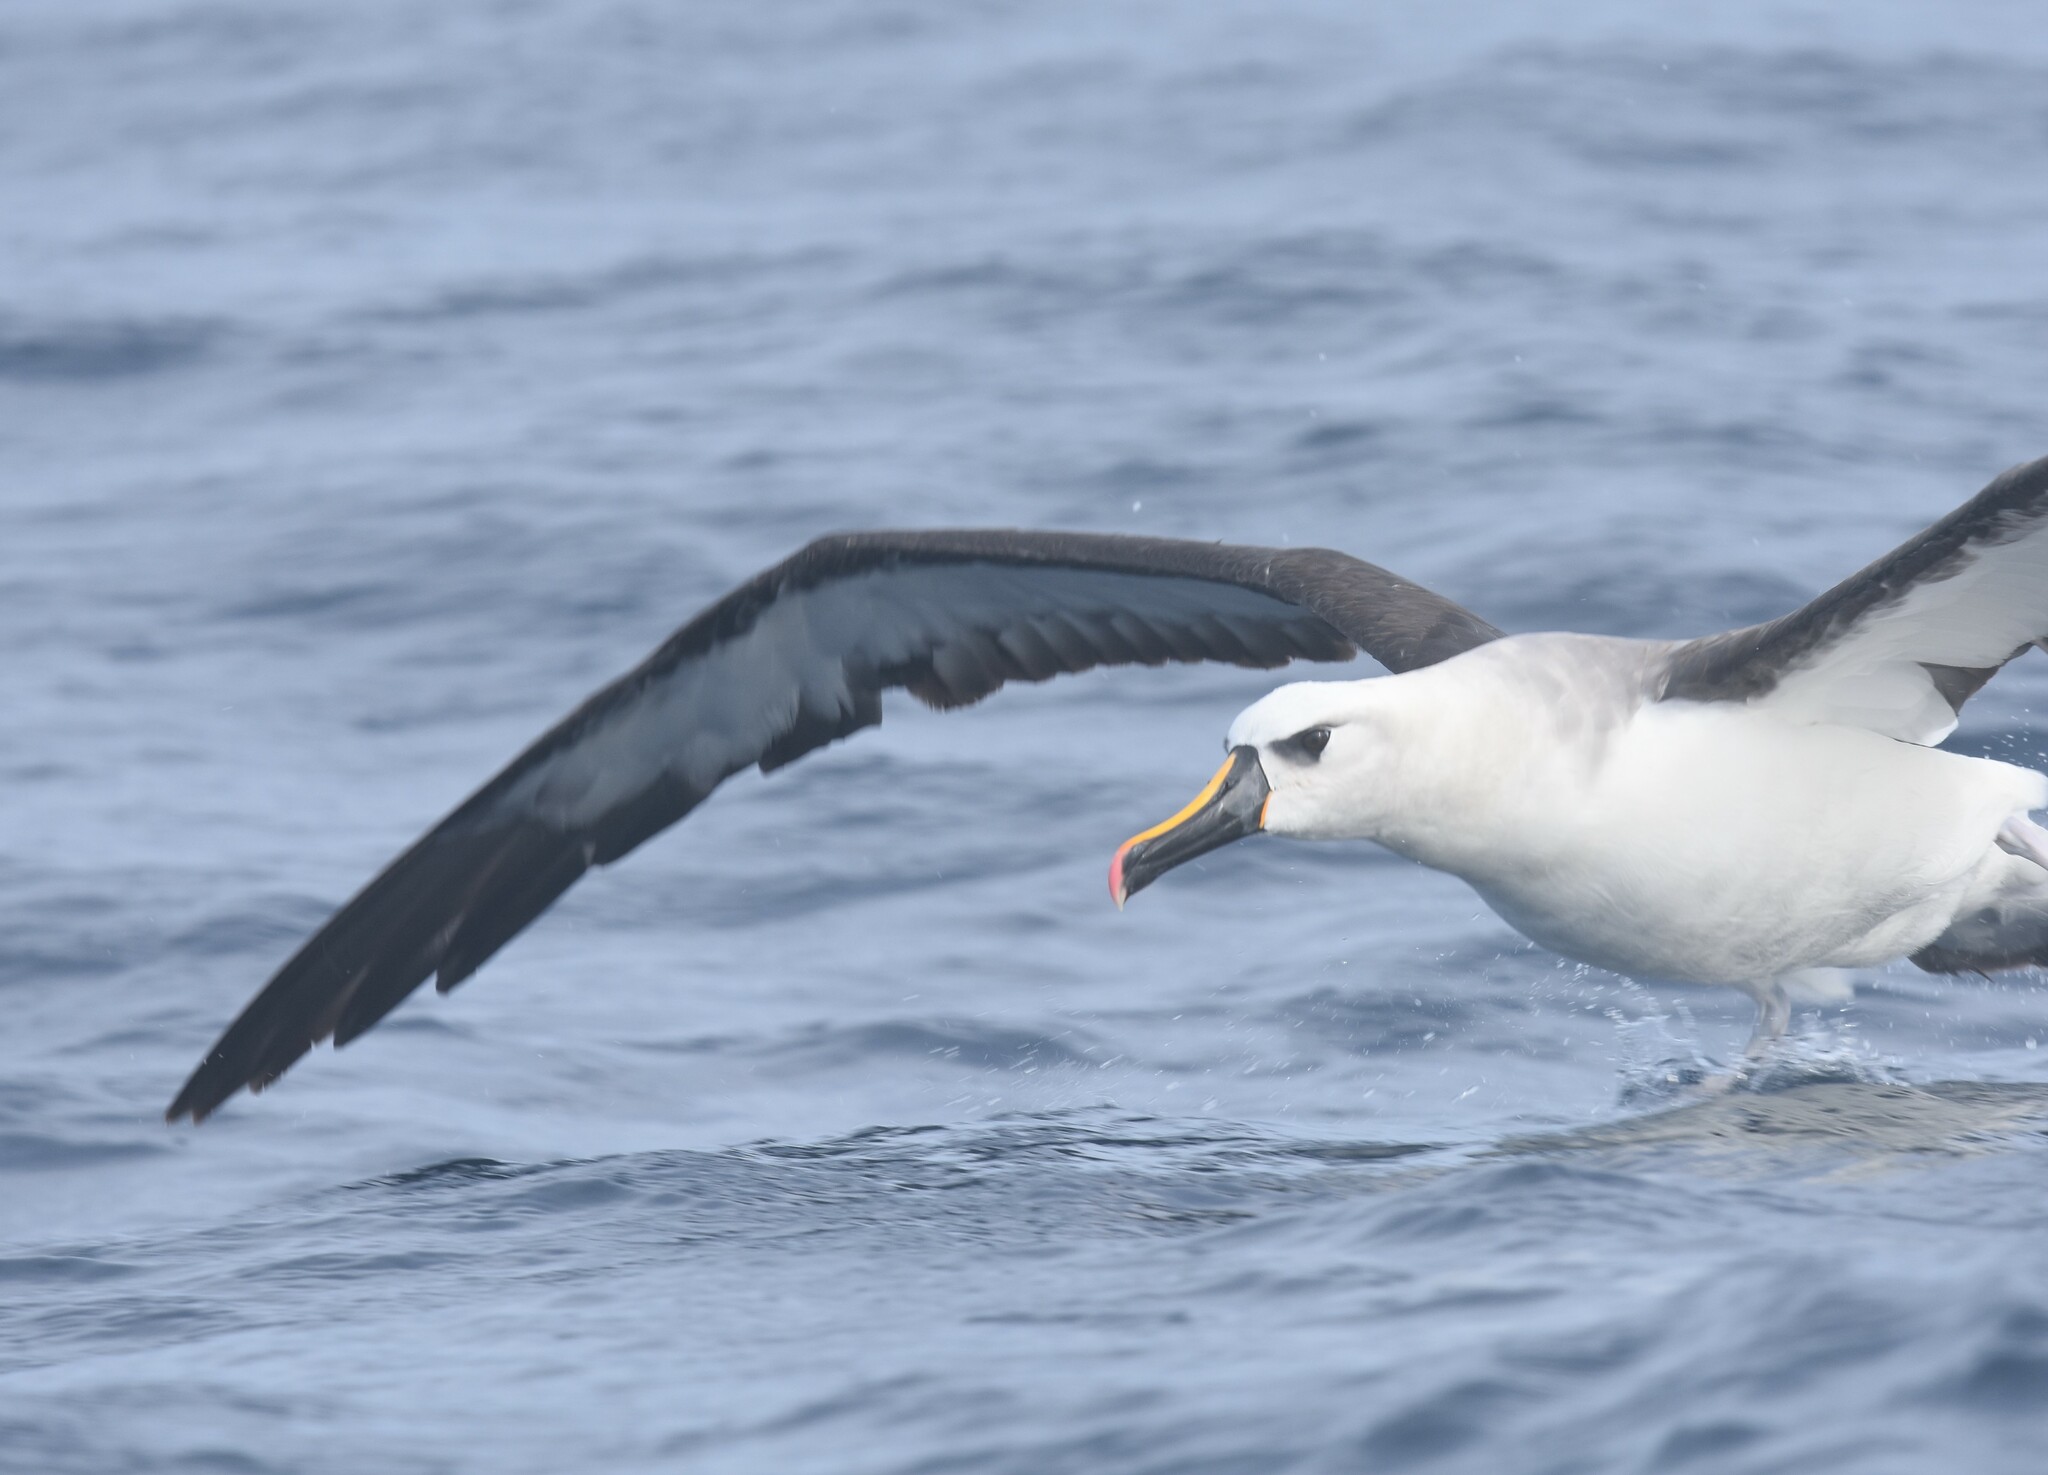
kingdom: Animalia
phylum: Chordata
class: Aves
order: Procellariiformes
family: Diomedeidae
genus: Thalassarche
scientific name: Thalassarche chlororhynchos
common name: Atlantic yellow-nosed albatross
